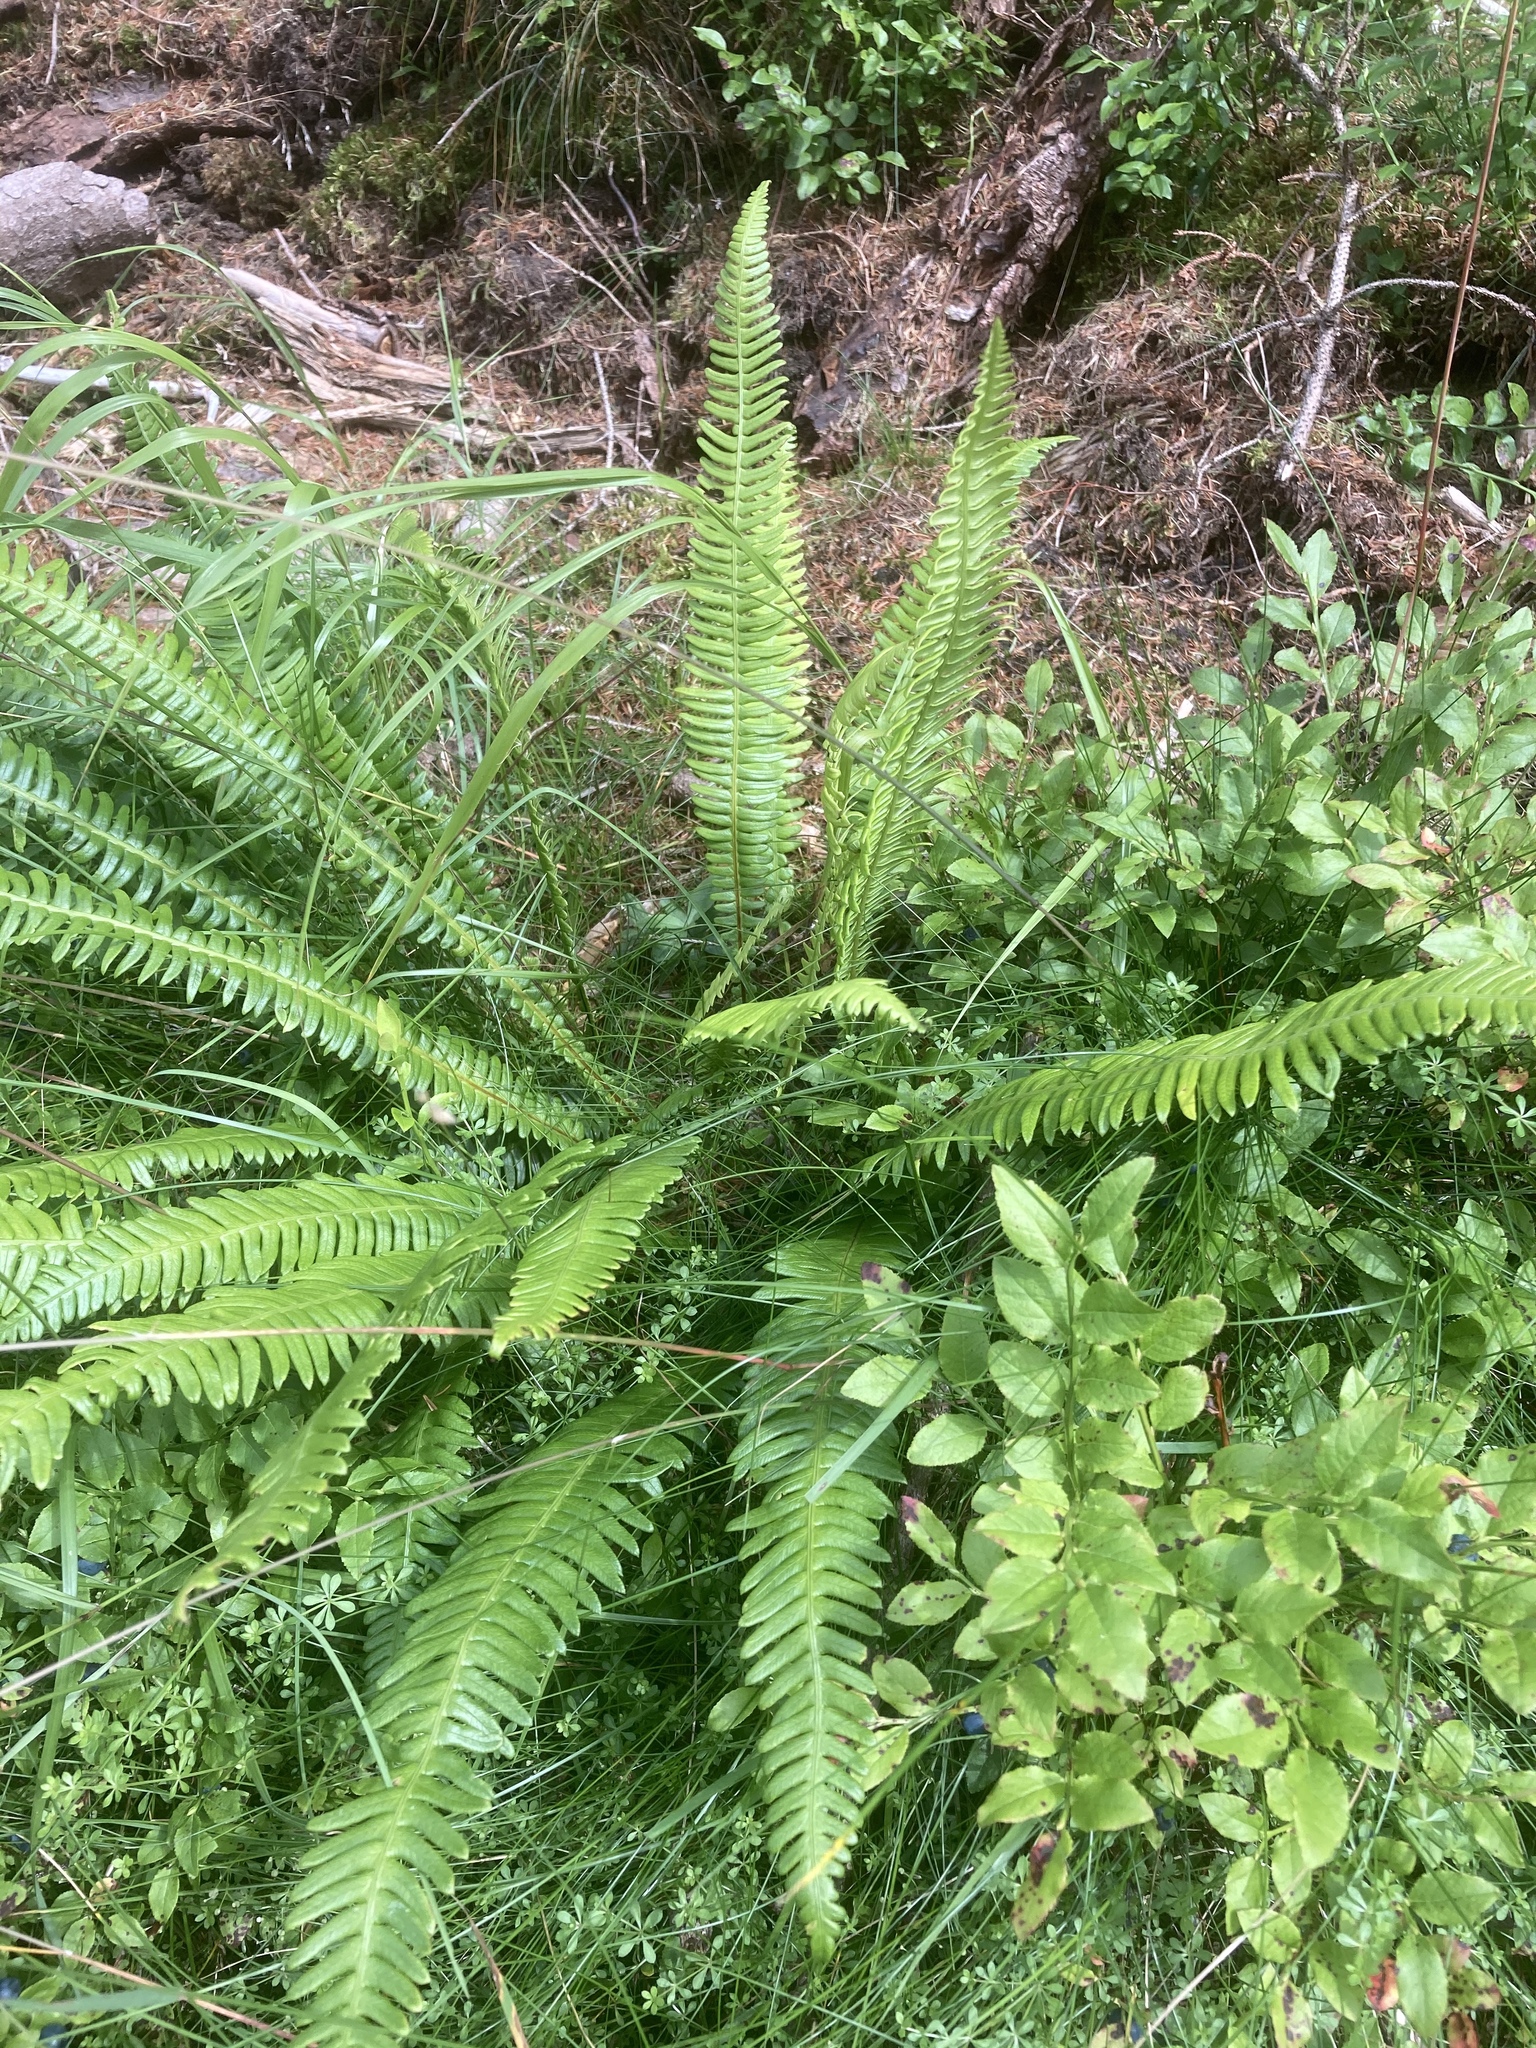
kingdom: Plantae
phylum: Tracheophyta
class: Polypodiopsida
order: Polypodiales
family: Blechnaceae
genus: Struthiopteris
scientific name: Struthiopteris spicant
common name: Deer fern
